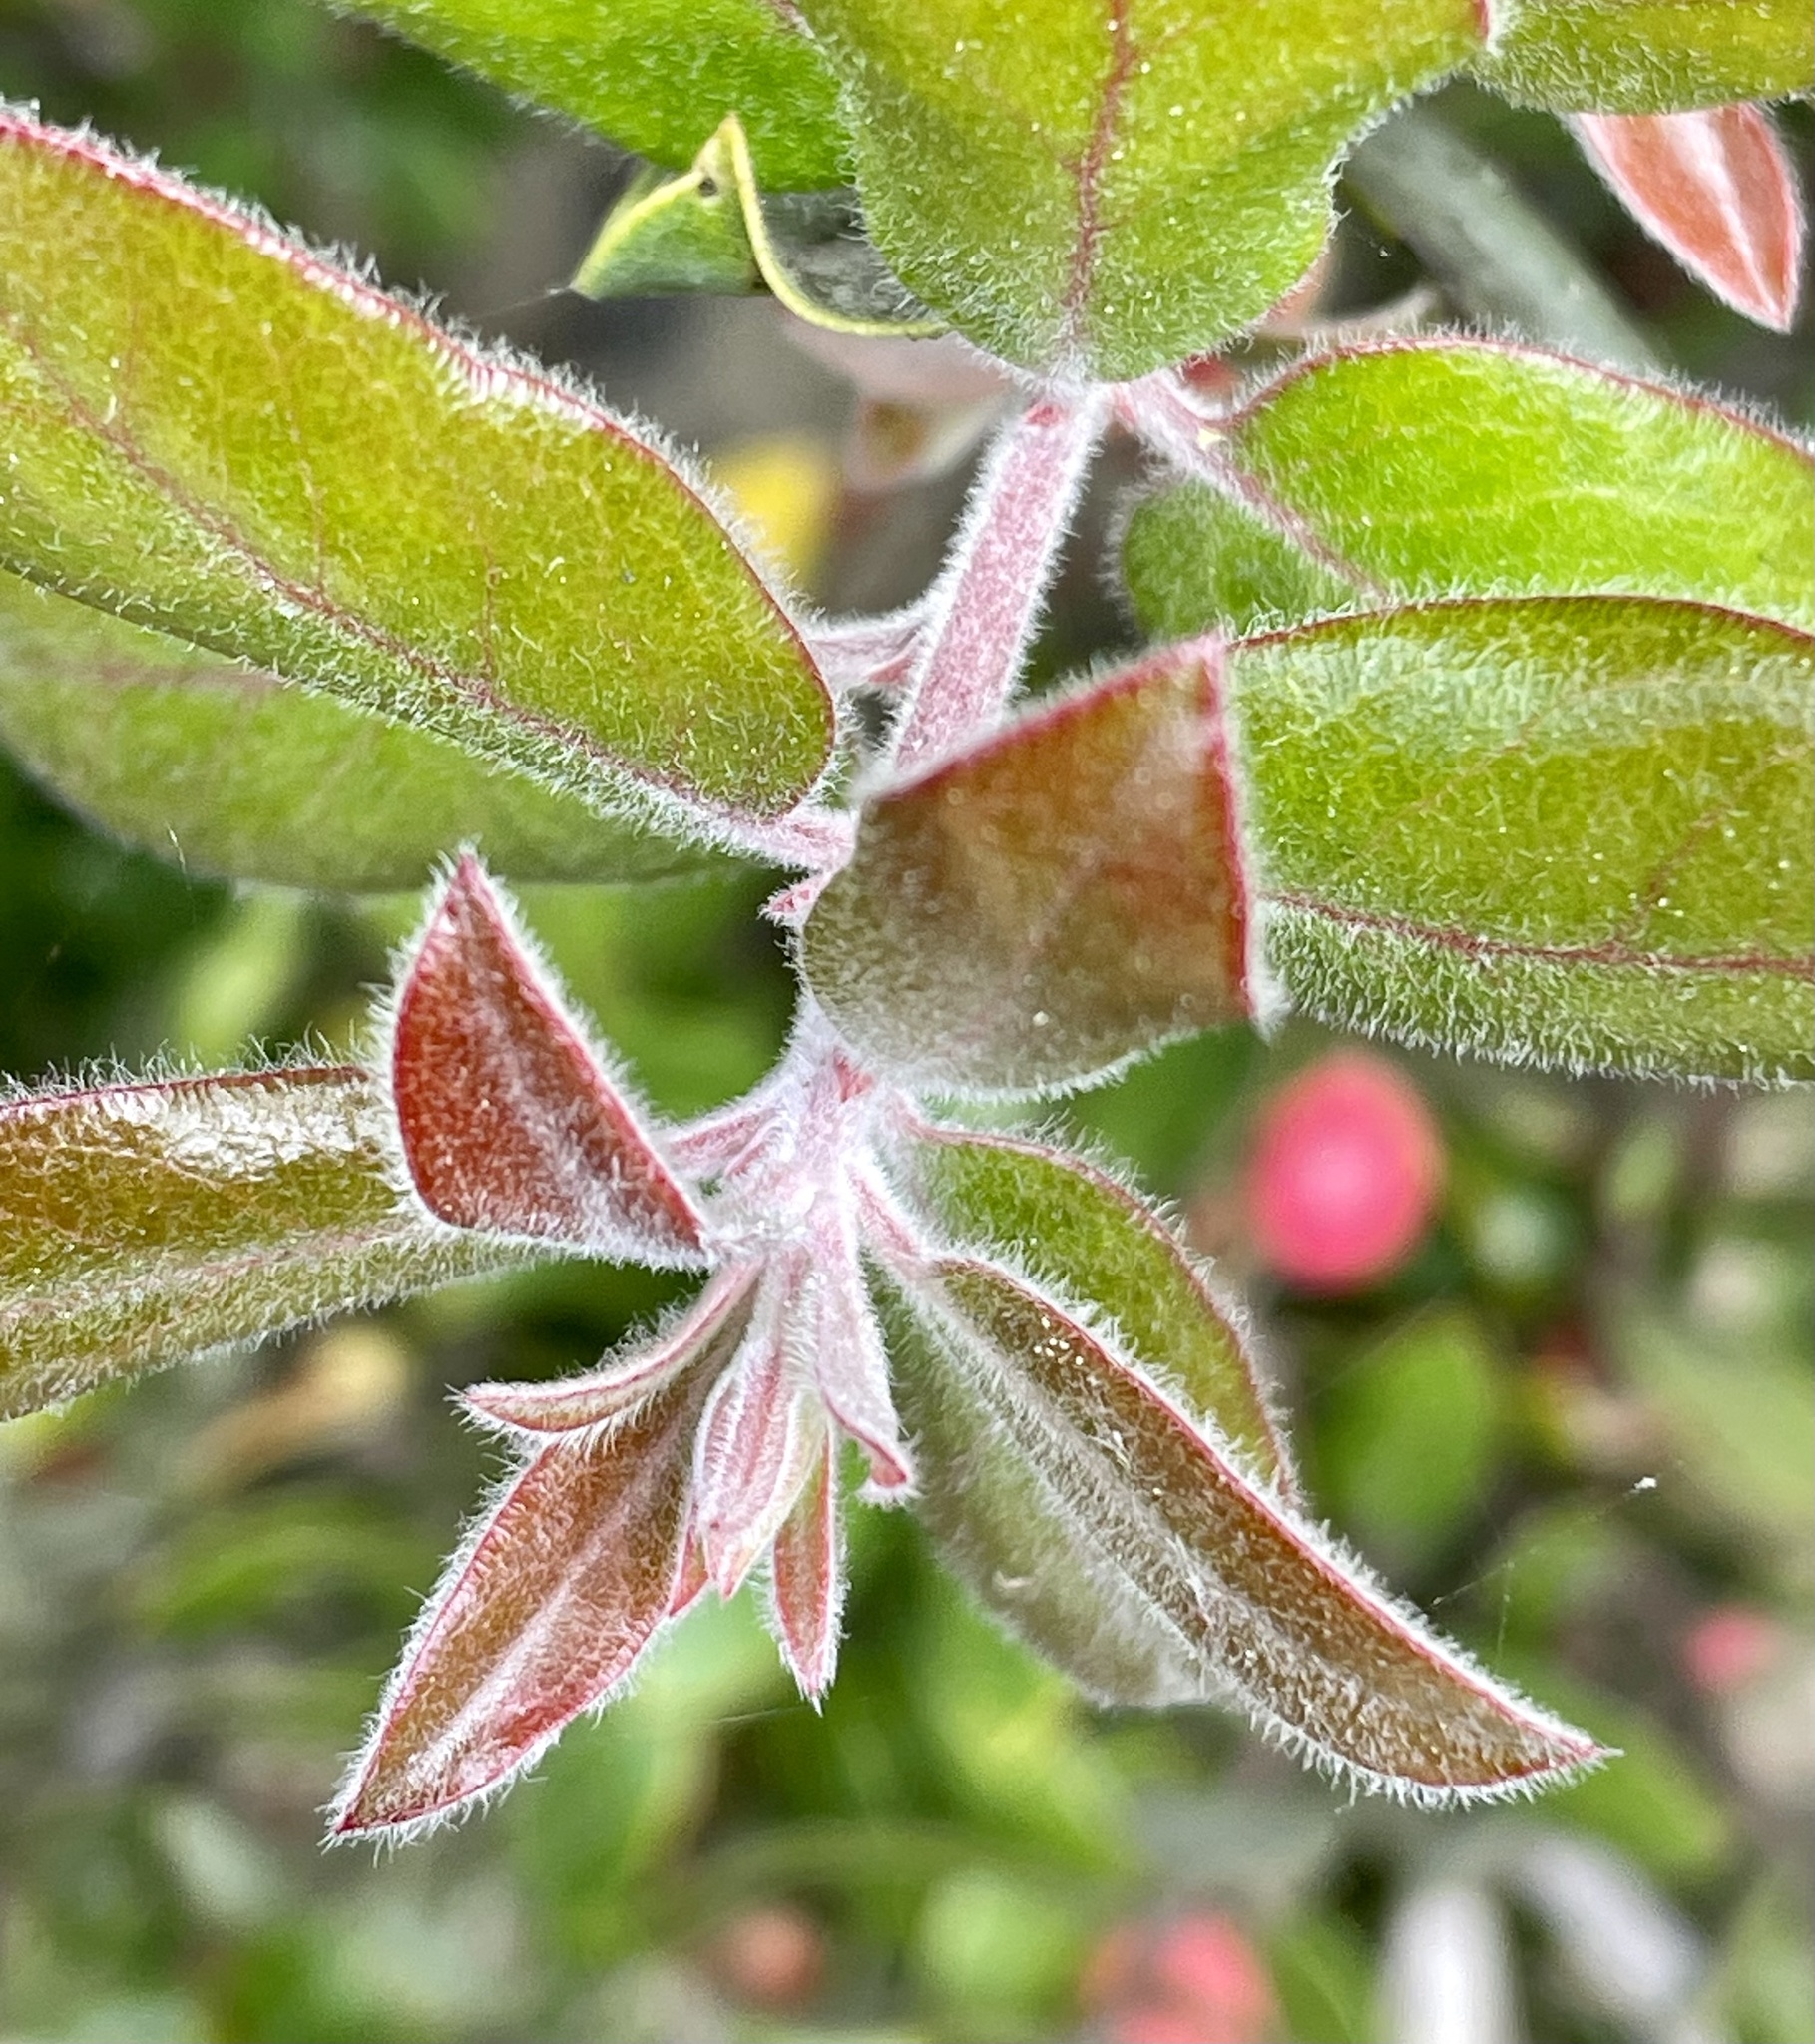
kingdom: Plantae
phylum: Tracheophyta
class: Magnoliopsida
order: Ericales
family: Ericaceae
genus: Arctostaphylos
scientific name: Arctostaphylos tomentosa
